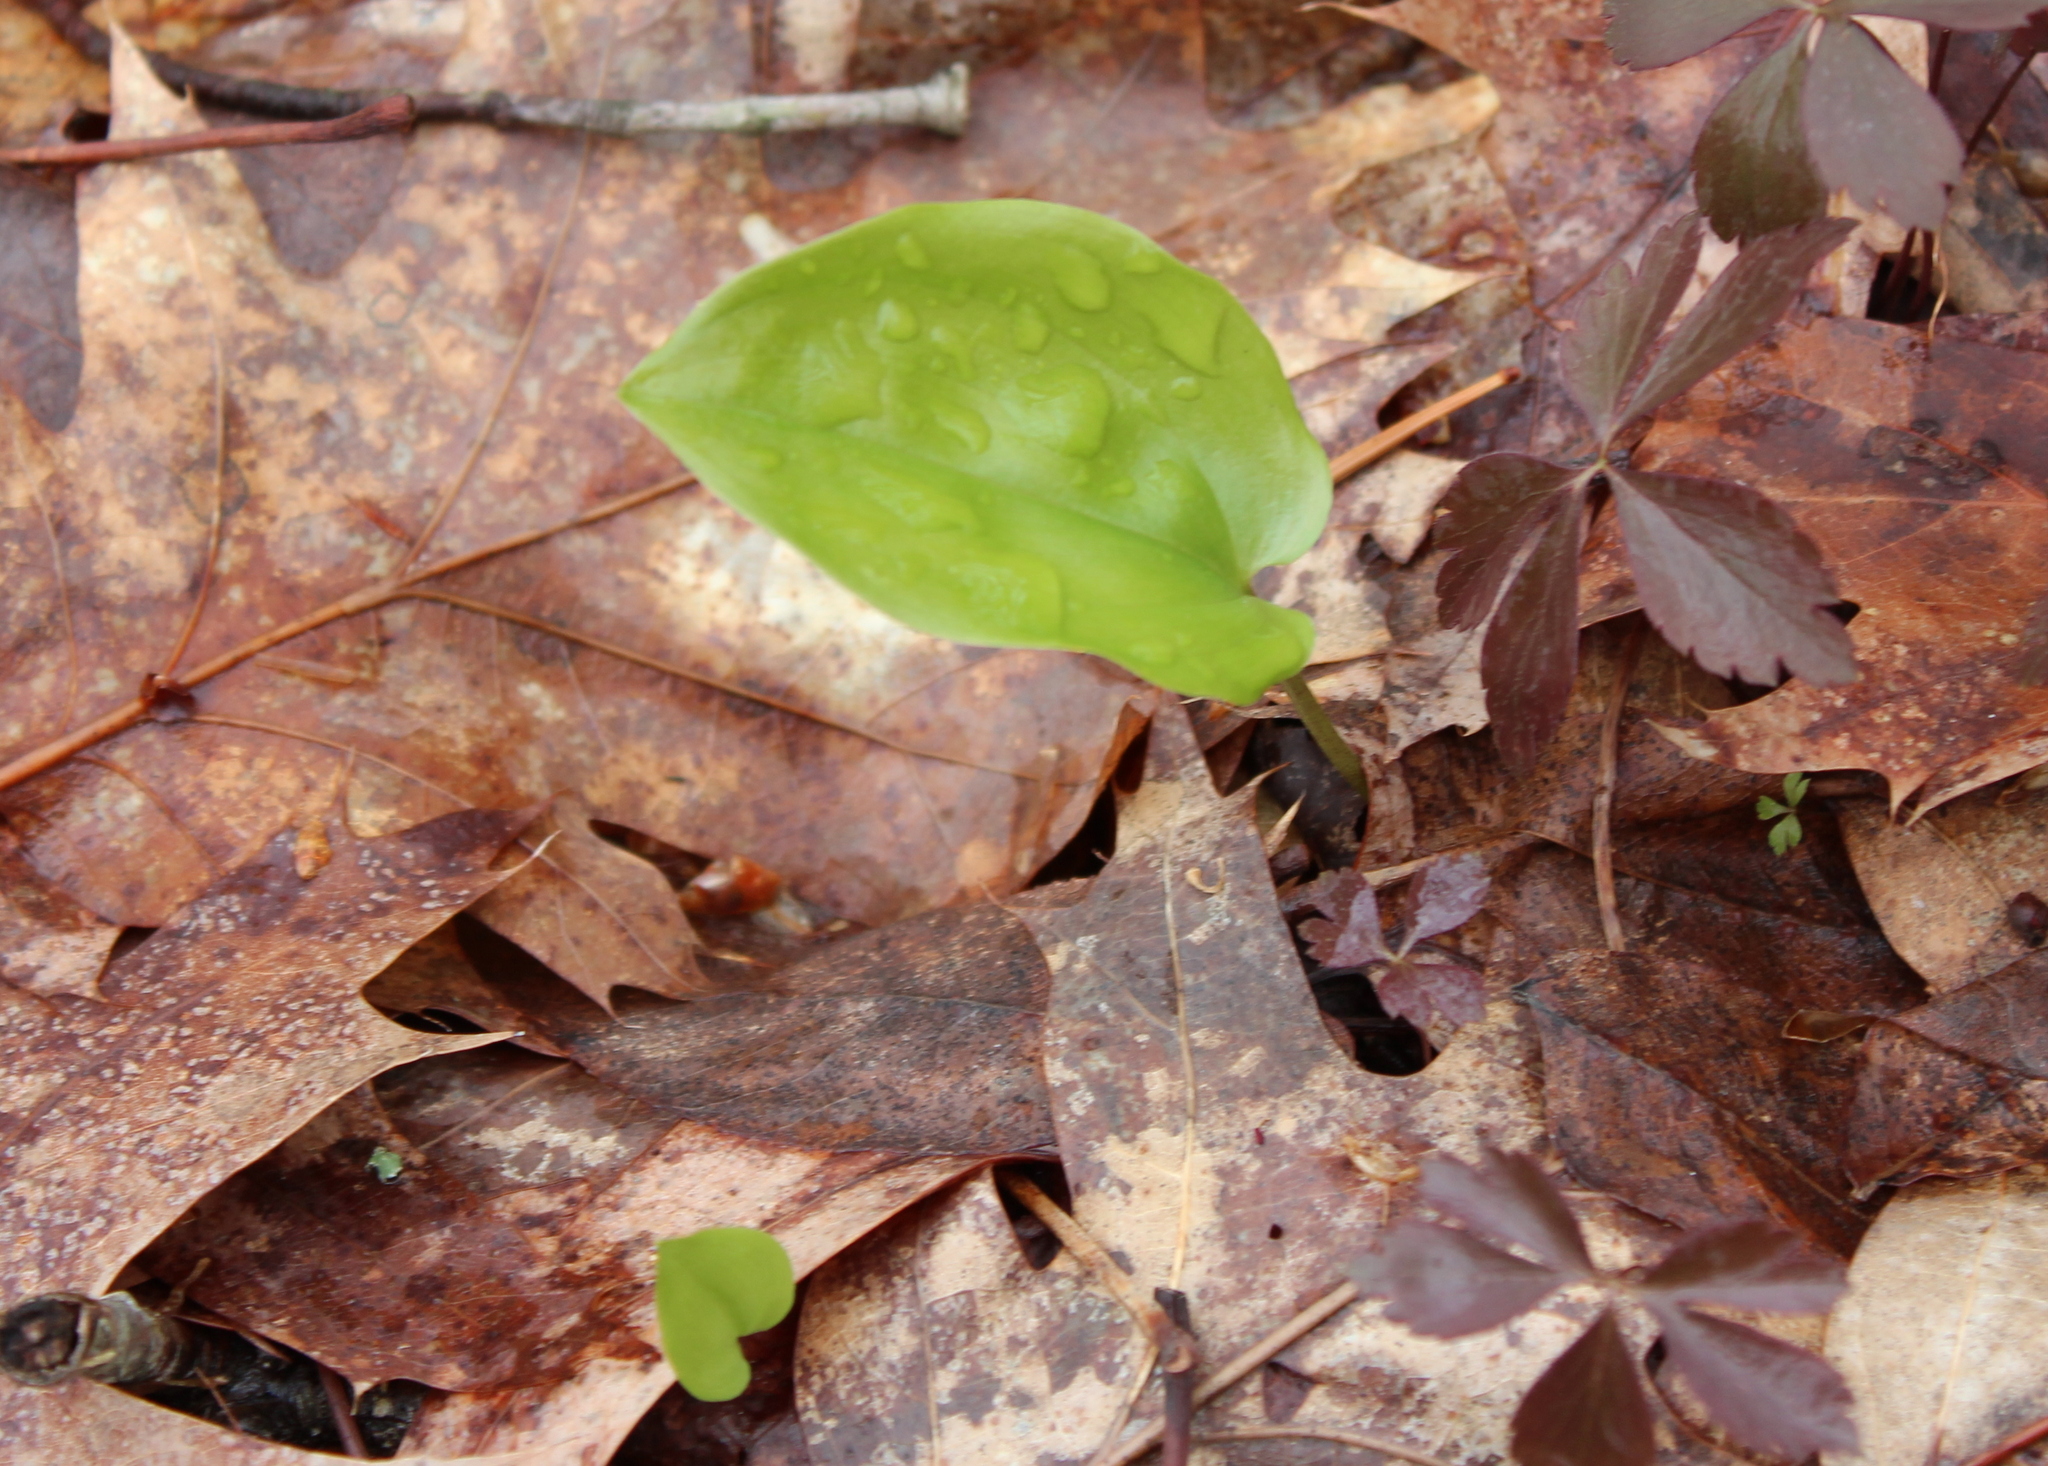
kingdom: Plantae
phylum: Tracheophyta
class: Liliopsida
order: Asparagales
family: Asparagaceae
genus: Maianthemum
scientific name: Maianthemum canadense
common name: False lily-of-the-valley
